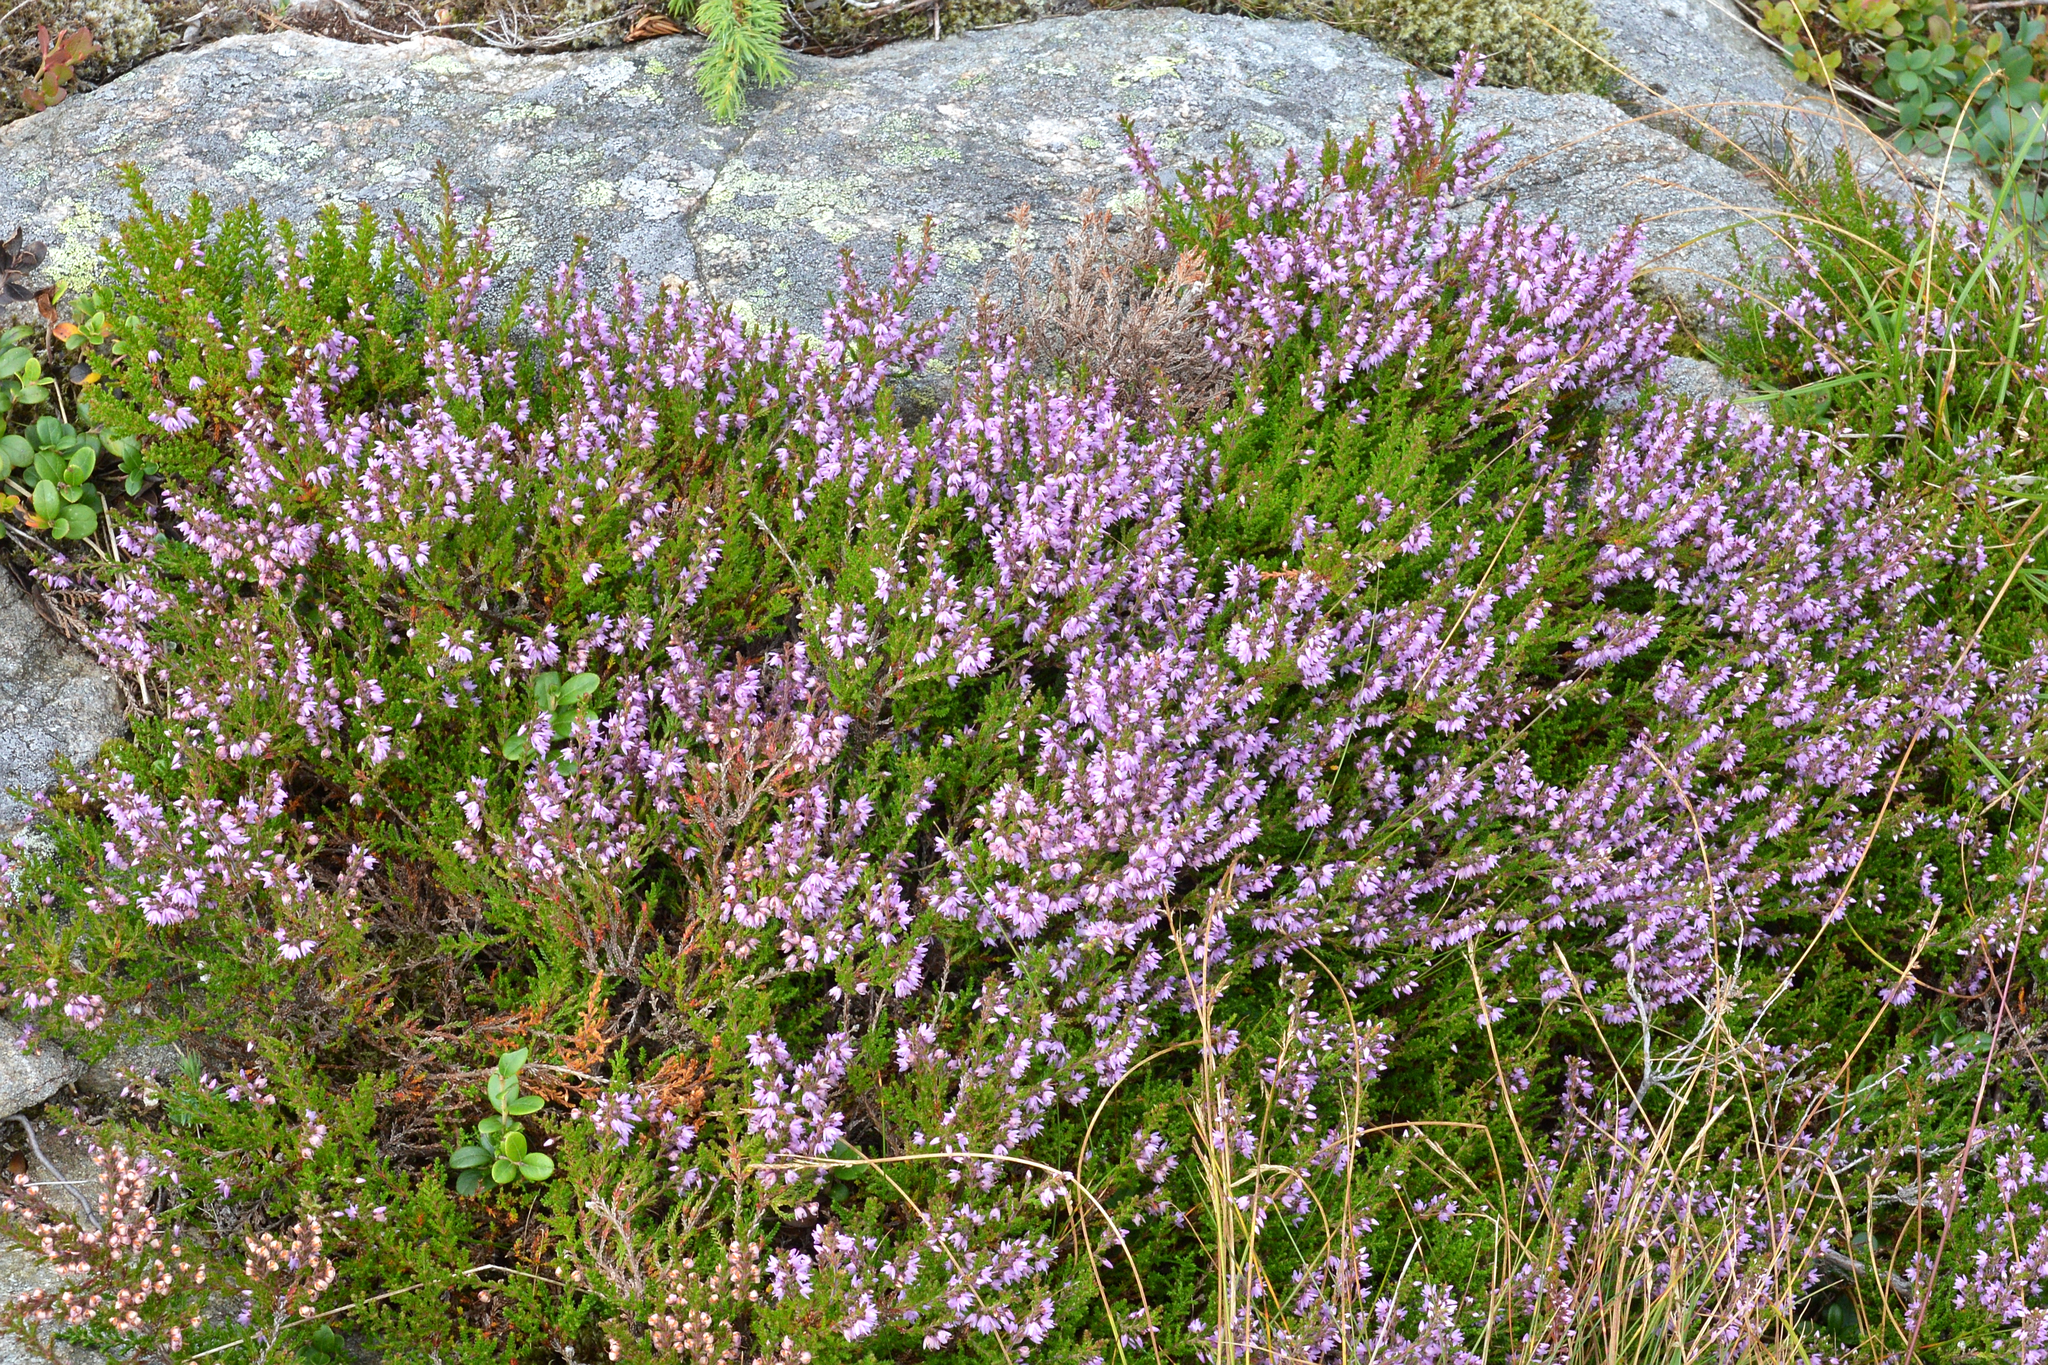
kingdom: Plantae
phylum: Tracheophyta
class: Magnoliopsida
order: Ericales
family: Ericaceae
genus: Calluna
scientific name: Calluna vulgaris
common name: Heather
